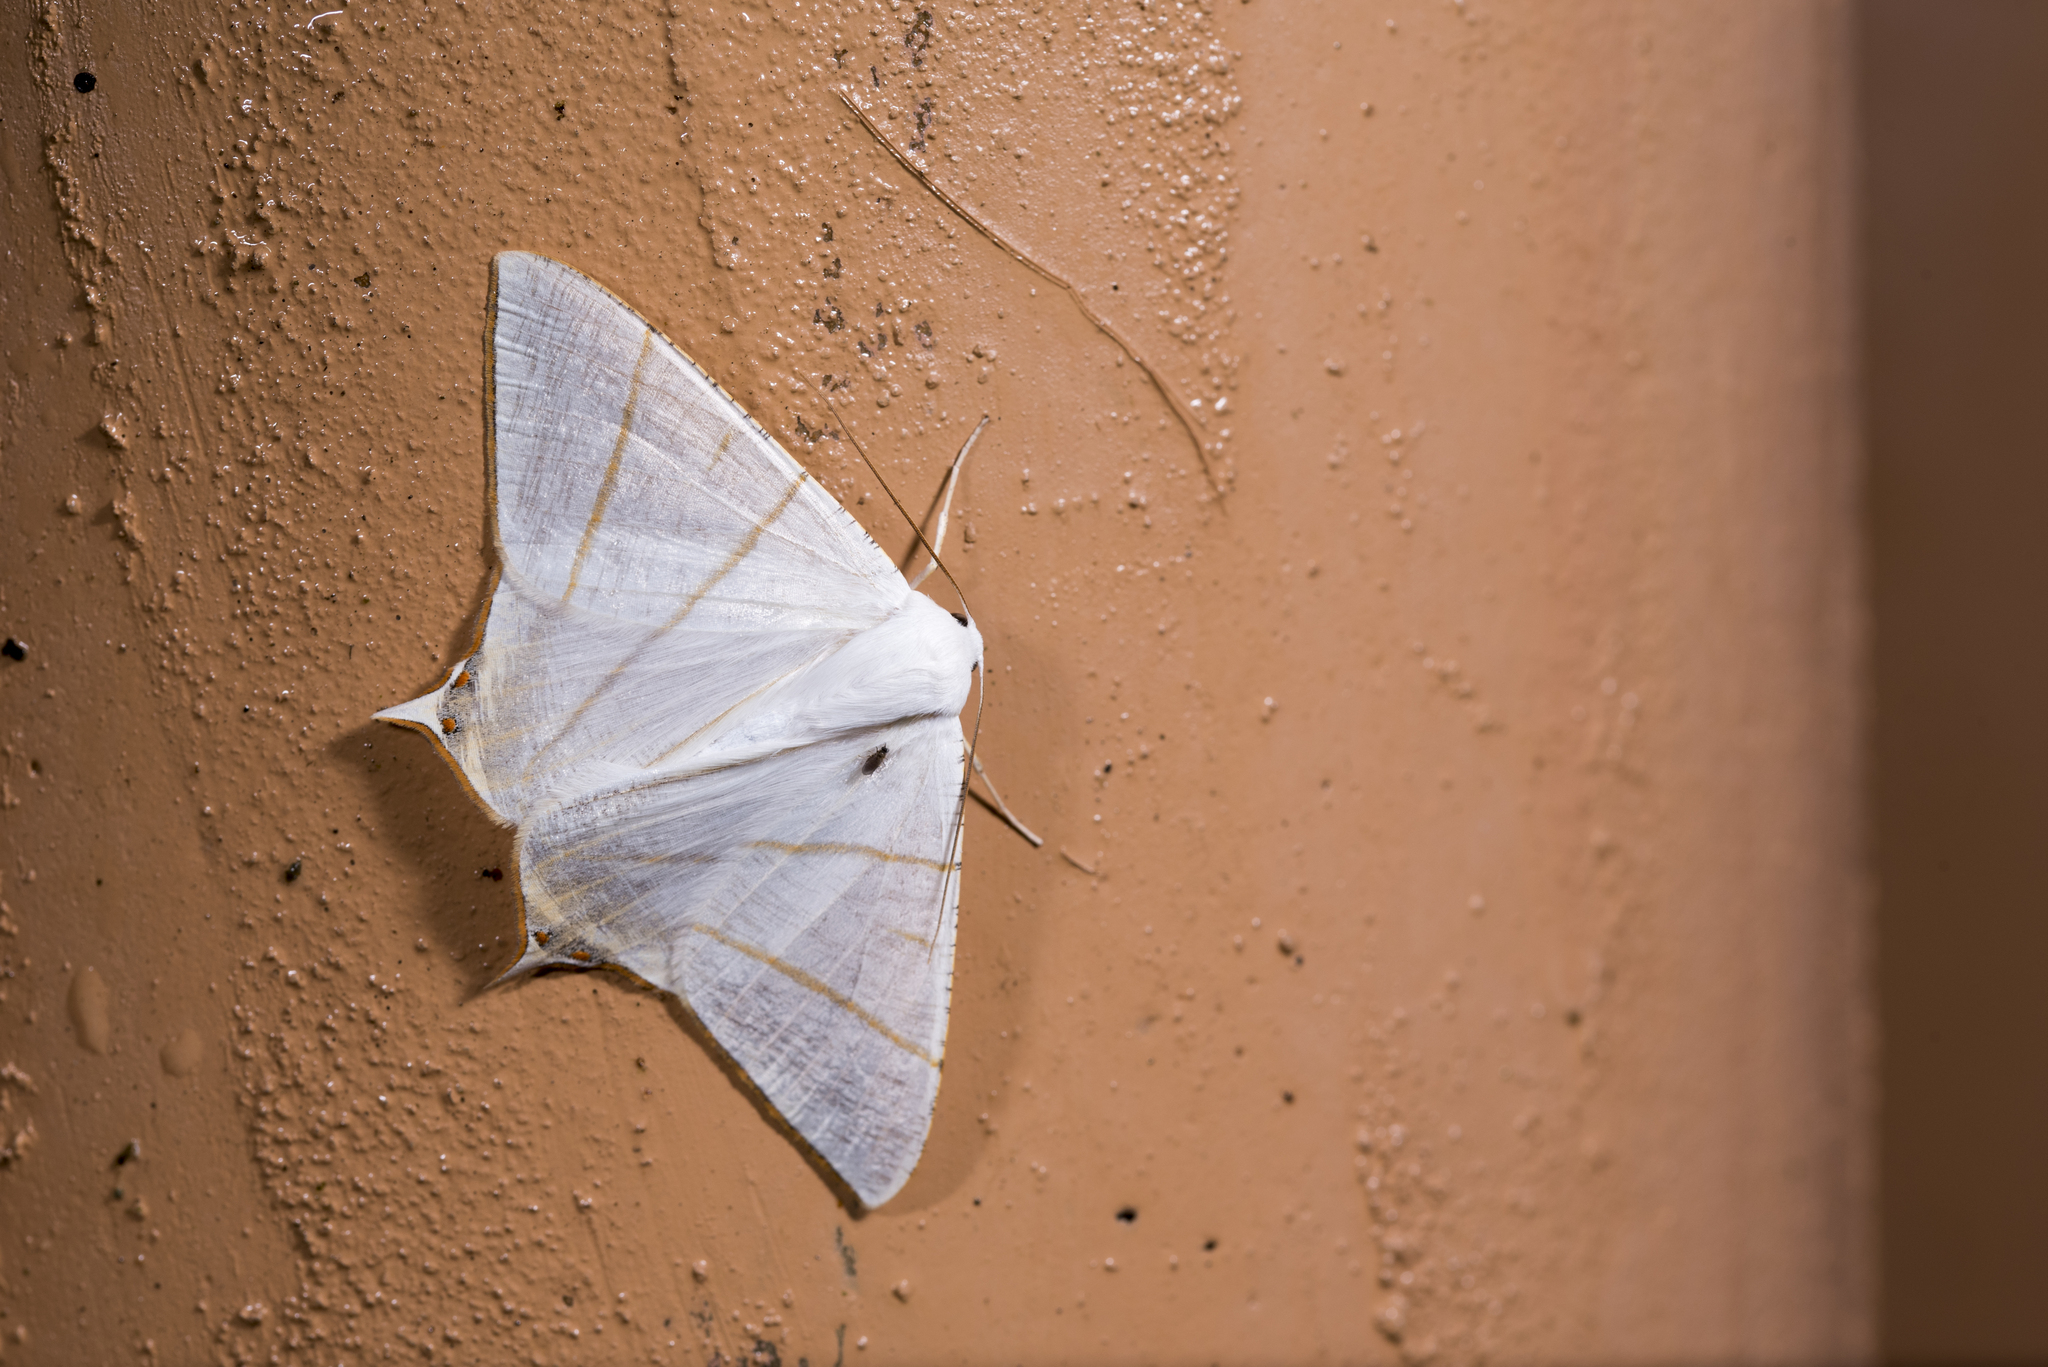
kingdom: Animalia
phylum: Arthropoda
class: Insecta
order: Lepidoptera
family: Geometridae
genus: Ourapteryx
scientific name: Ourapteryx changi
